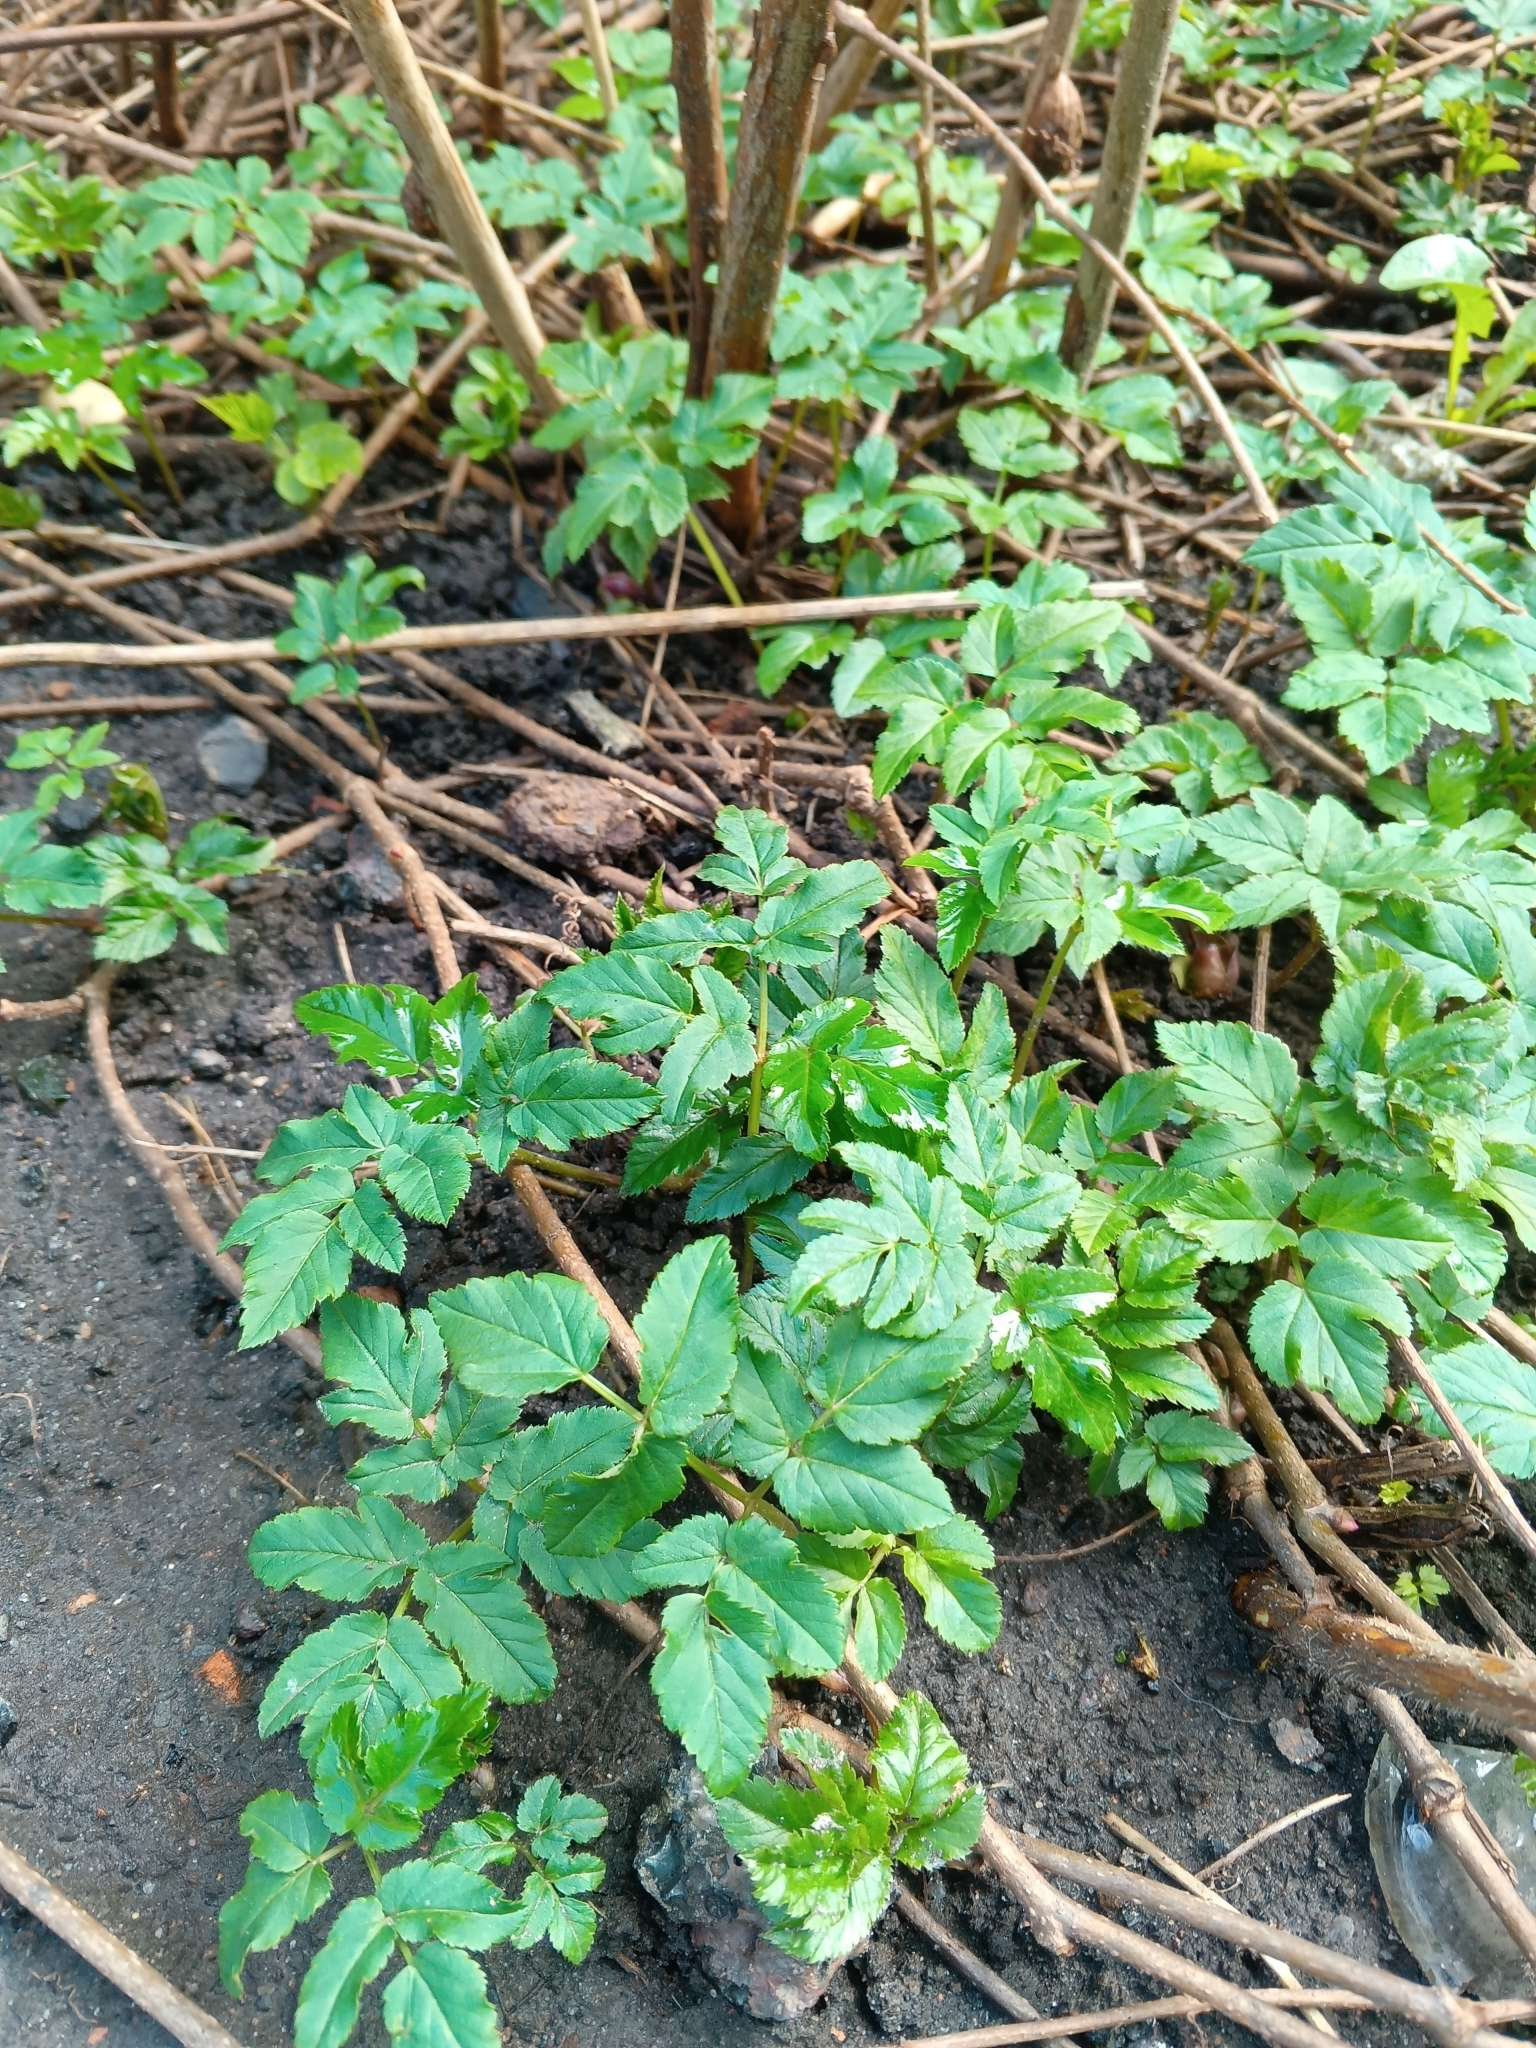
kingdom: Plantae
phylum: Tracheophyta
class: Magnoliopsida
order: Apiales
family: Apiaceae
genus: Aegopodium
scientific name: Aegopodium podagraria
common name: Ground-elder
